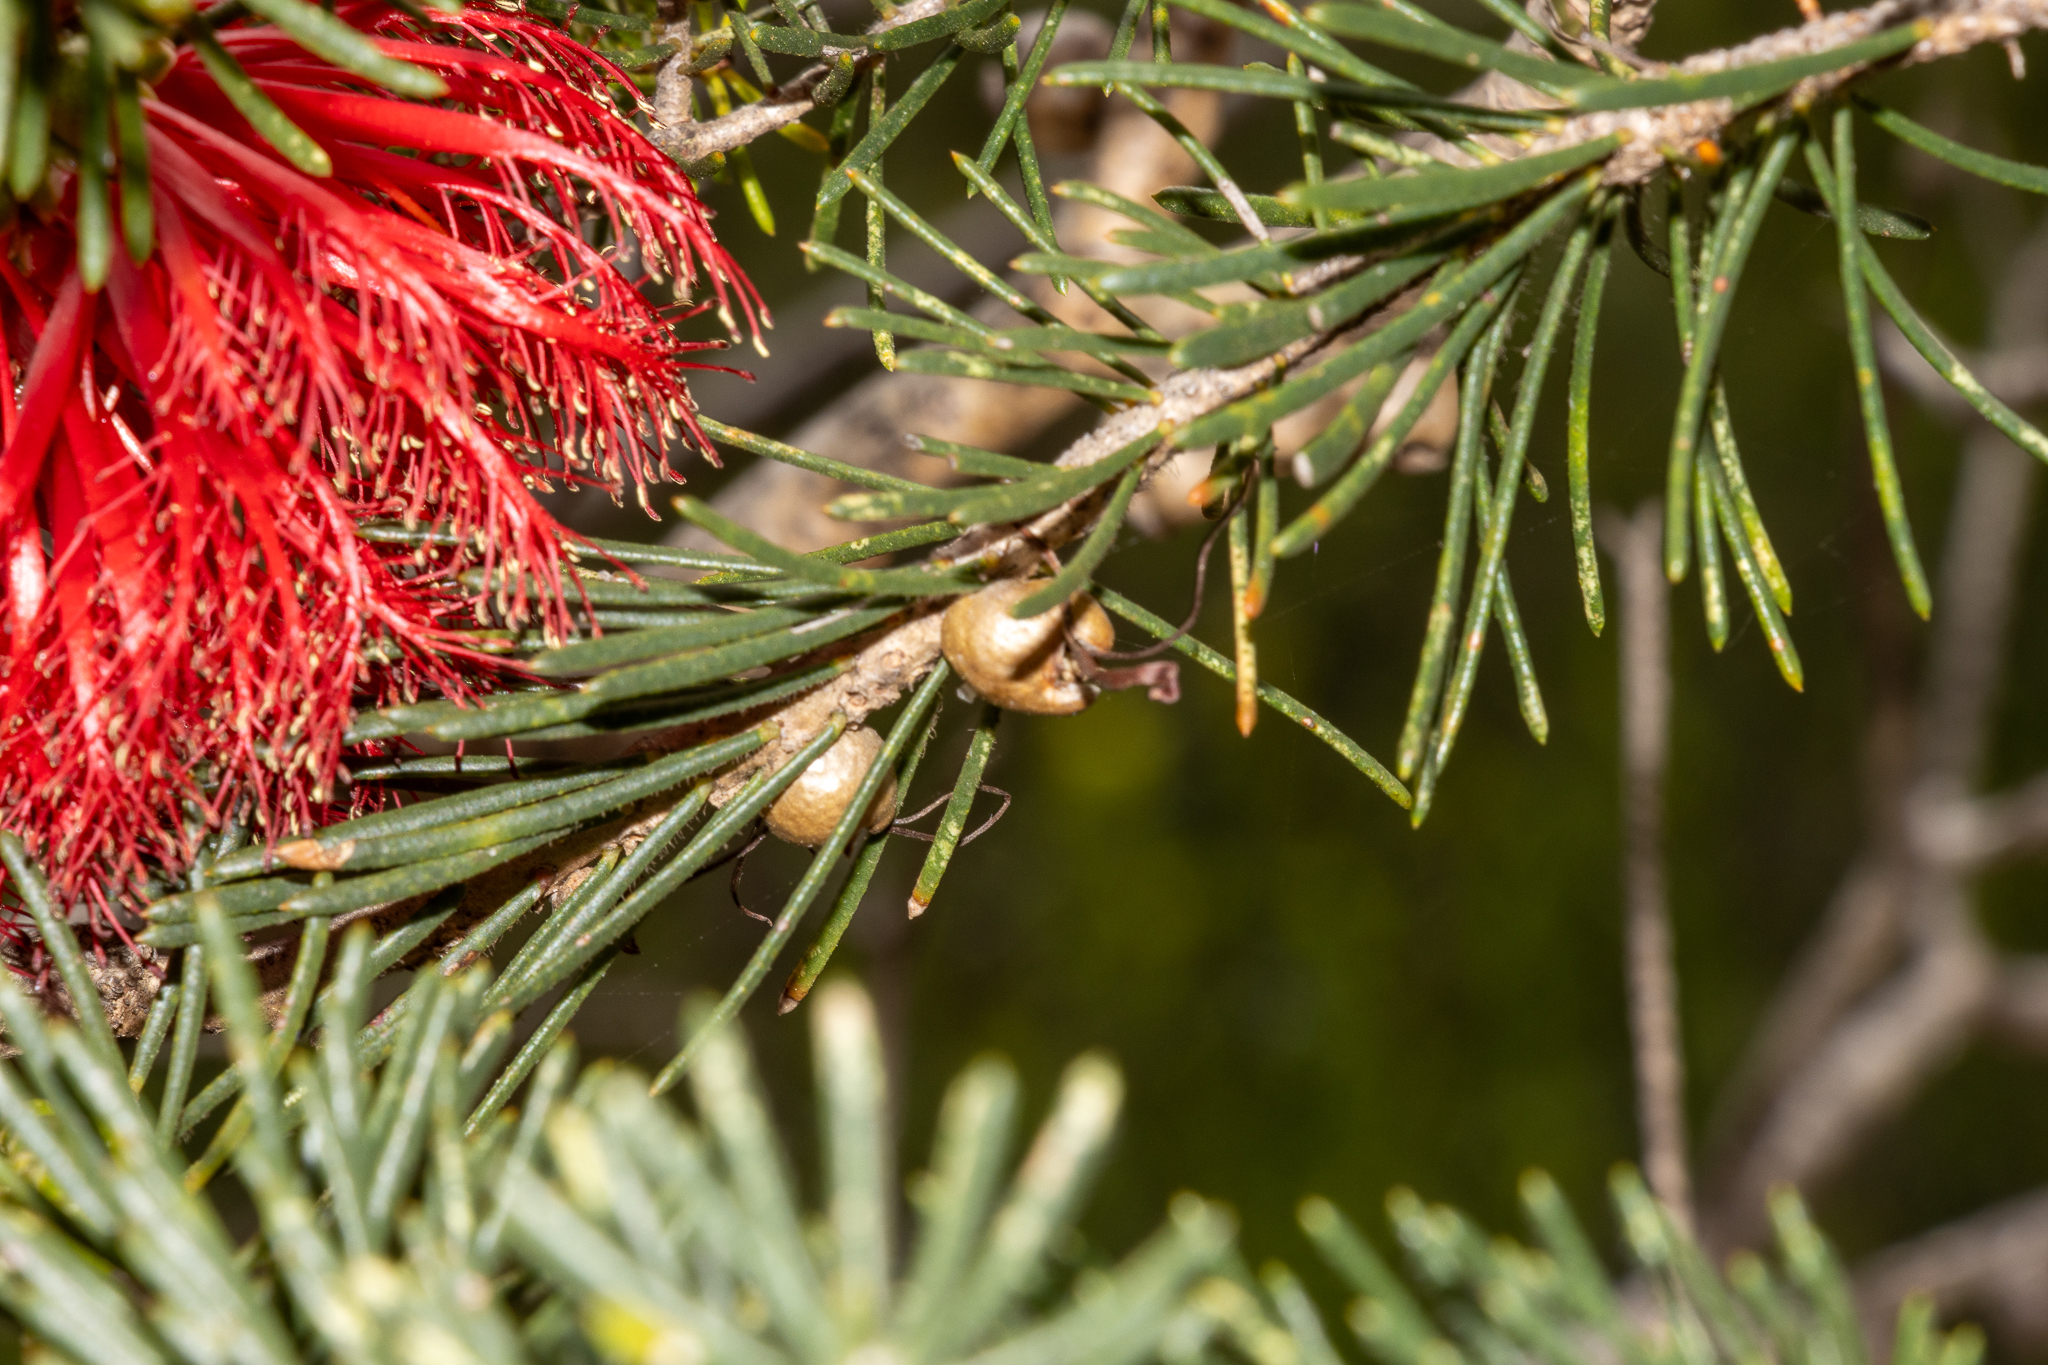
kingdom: Plantae
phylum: Tracheophyta
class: Magnoliopsida
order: Myrtales
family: Myrtaceae
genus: Melaleuca
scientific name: Melaleuca quadrifida
